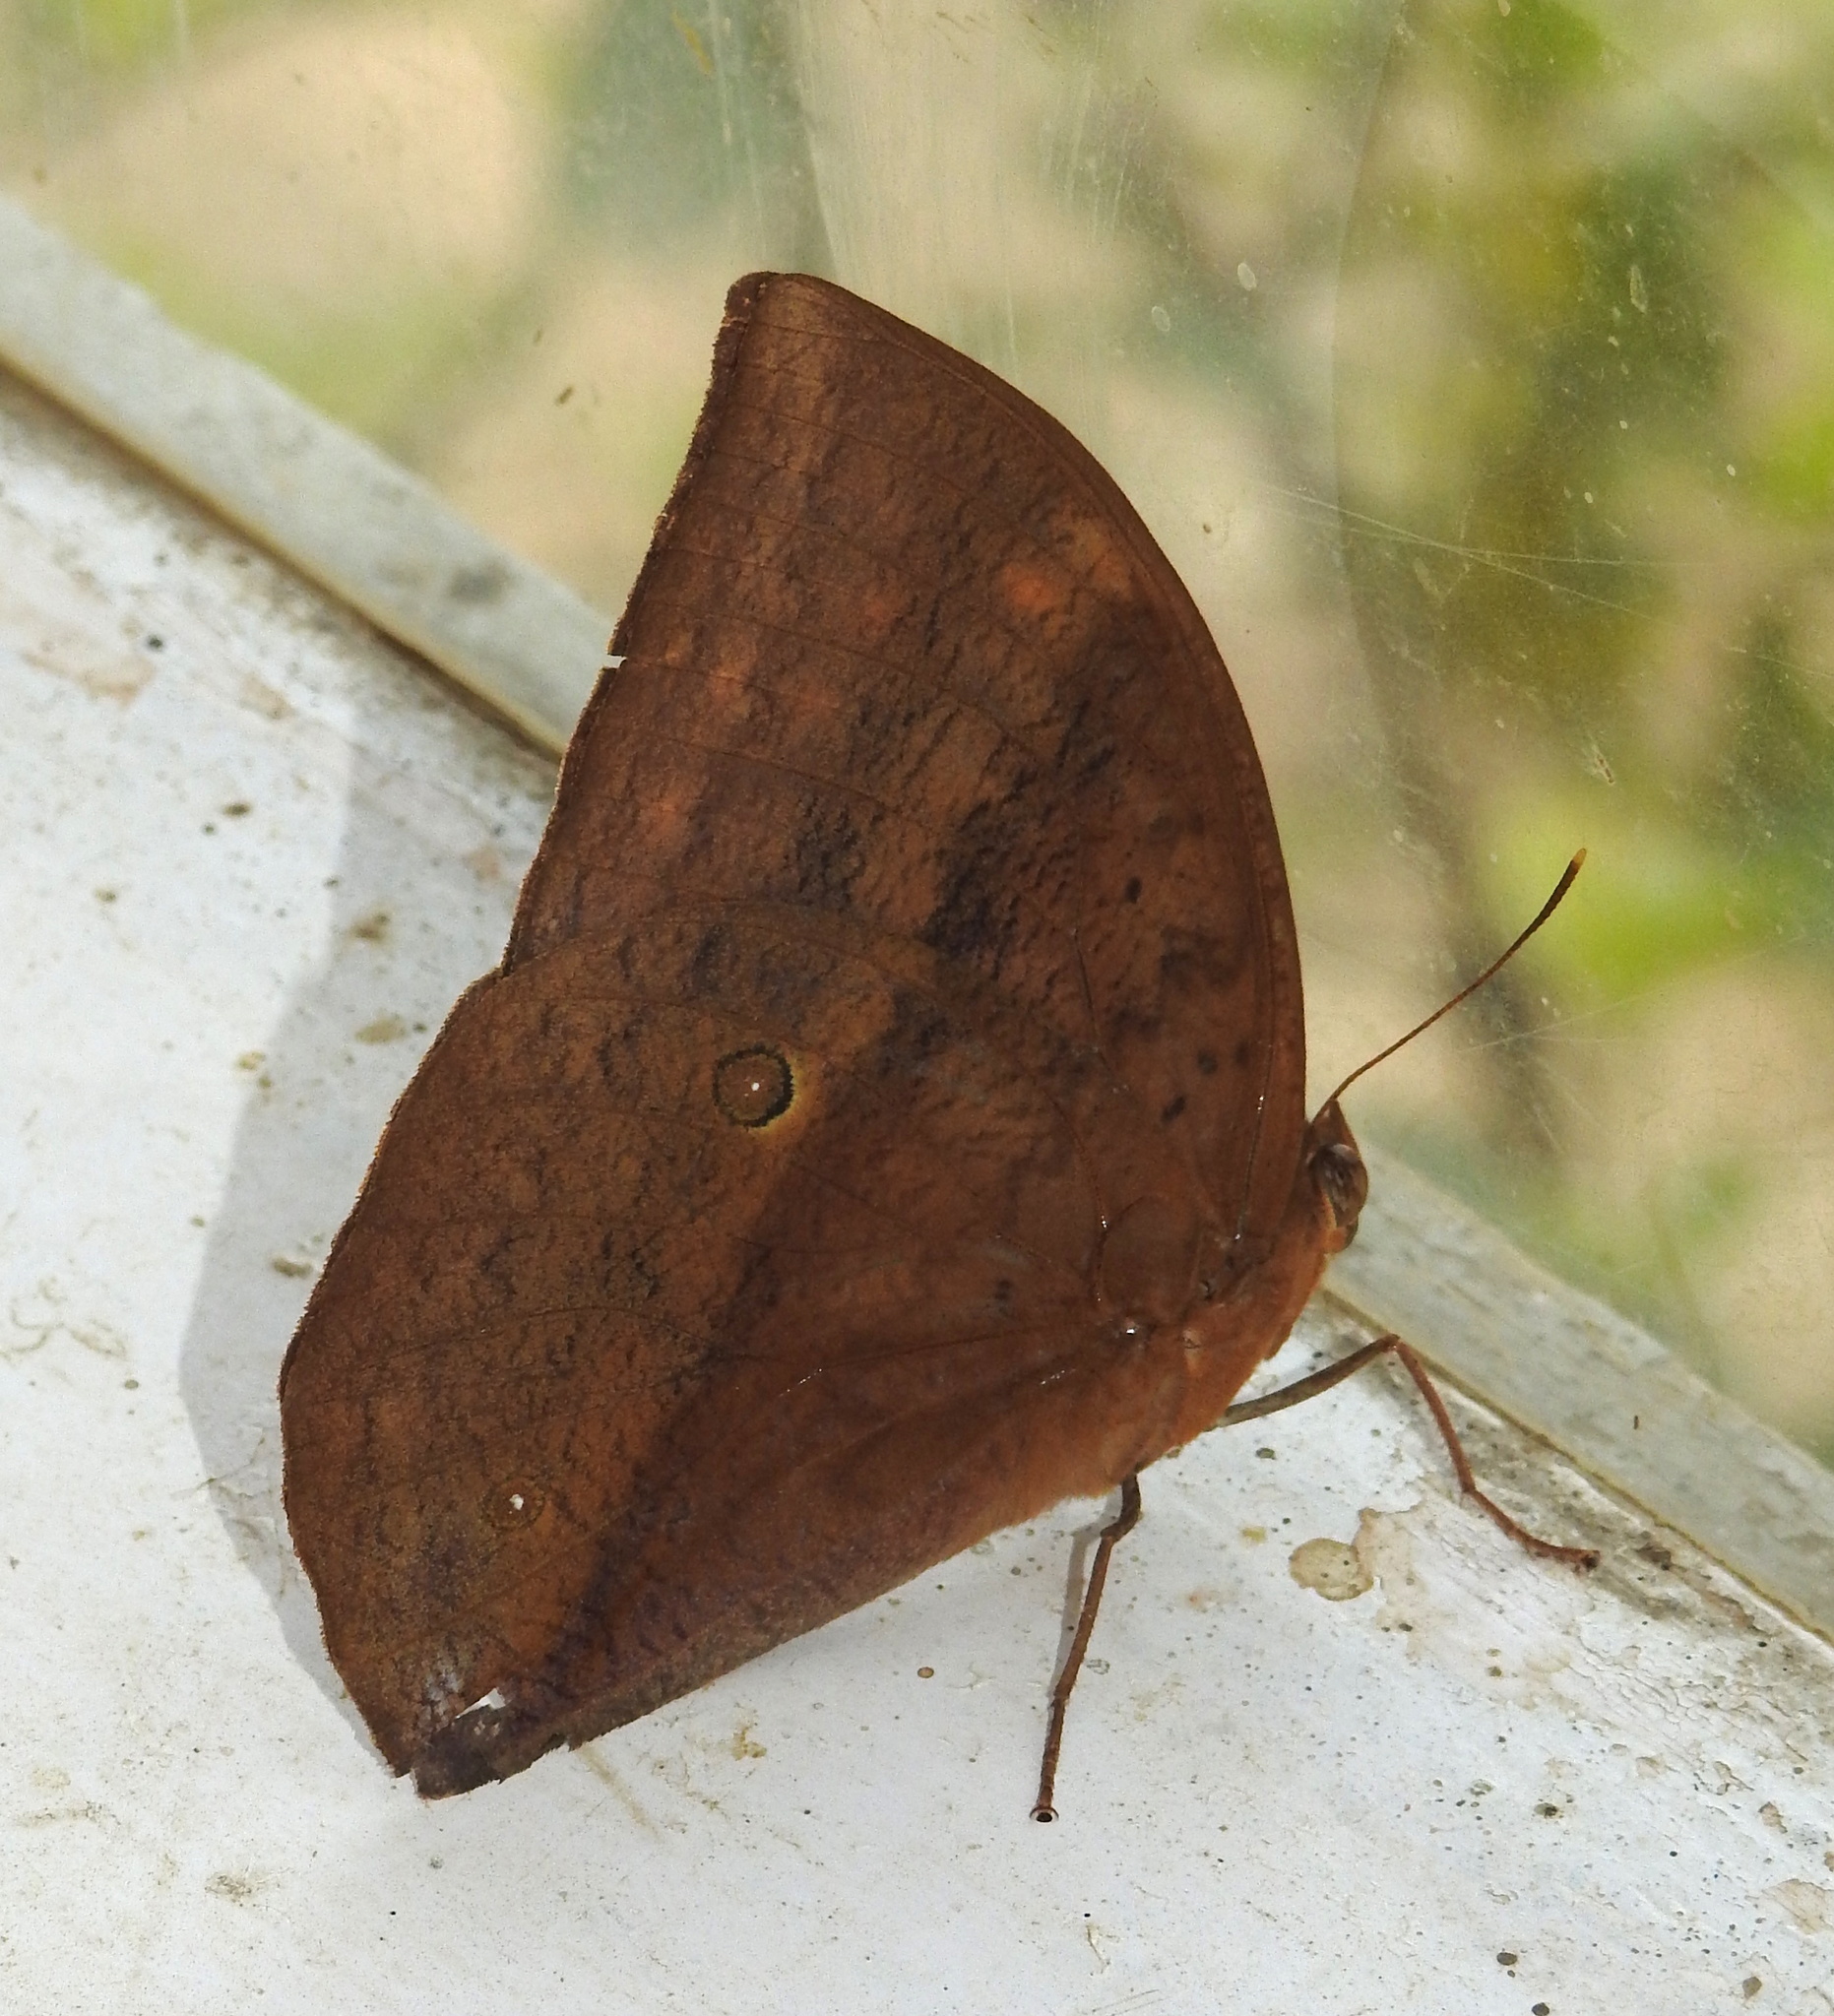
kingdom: Animalia
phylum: Arthropoda
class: Insecta
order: Lepidoptera
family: Nymphalidae
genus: Discophora
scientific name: Discophora sondaica
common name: Common duffer
